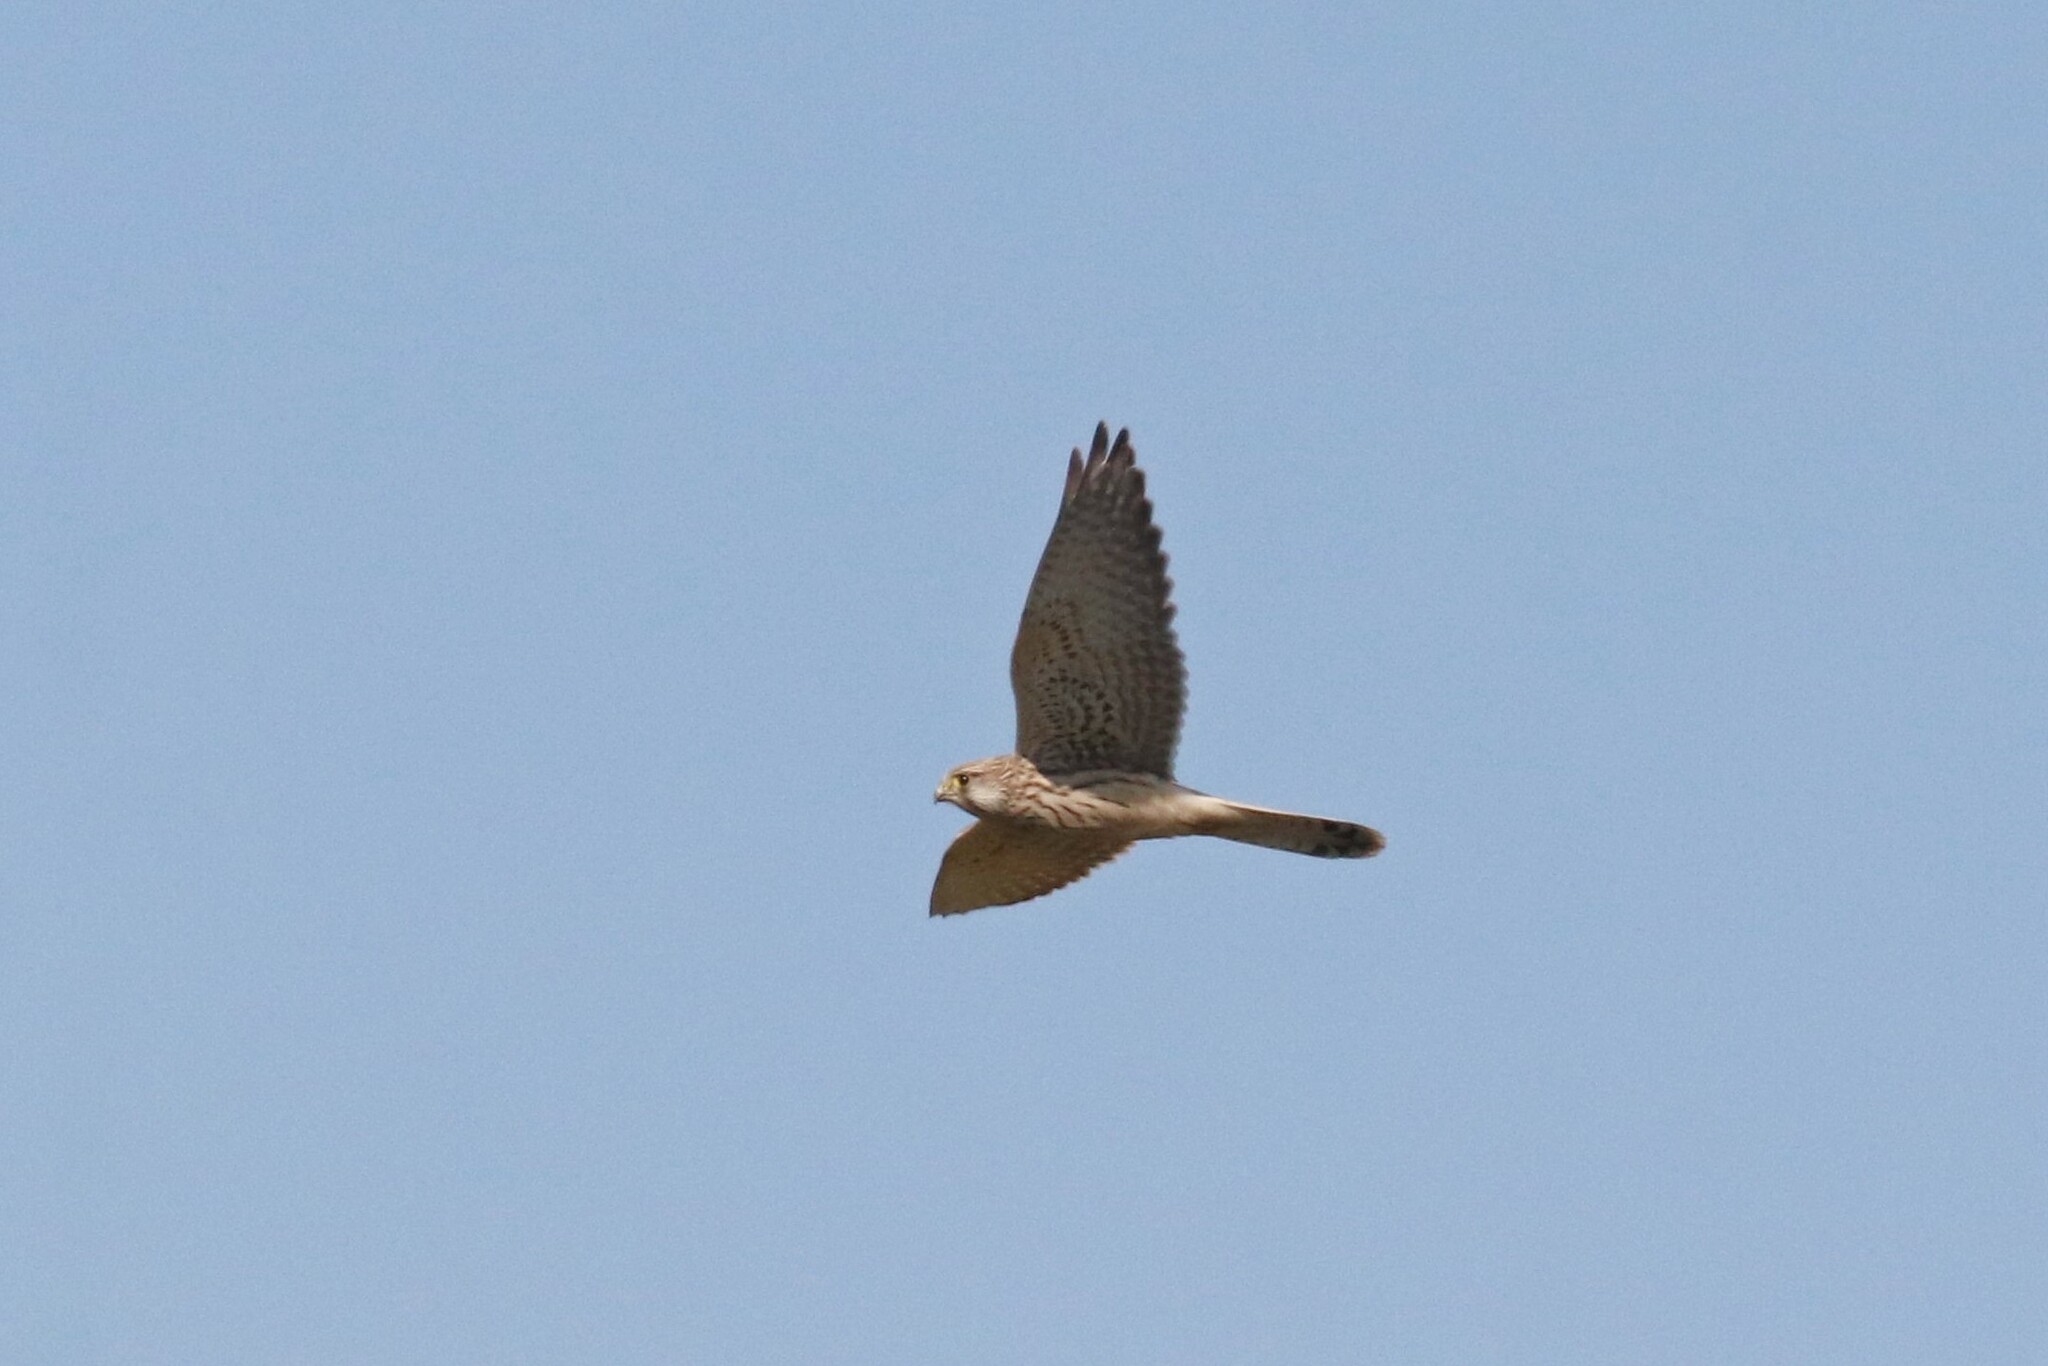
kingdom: Animalia
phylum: Chordata
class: Aves
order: Falconiformes
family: Falconidae
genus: Falco
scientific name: Falco tinnunculus
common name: Common kestrel
